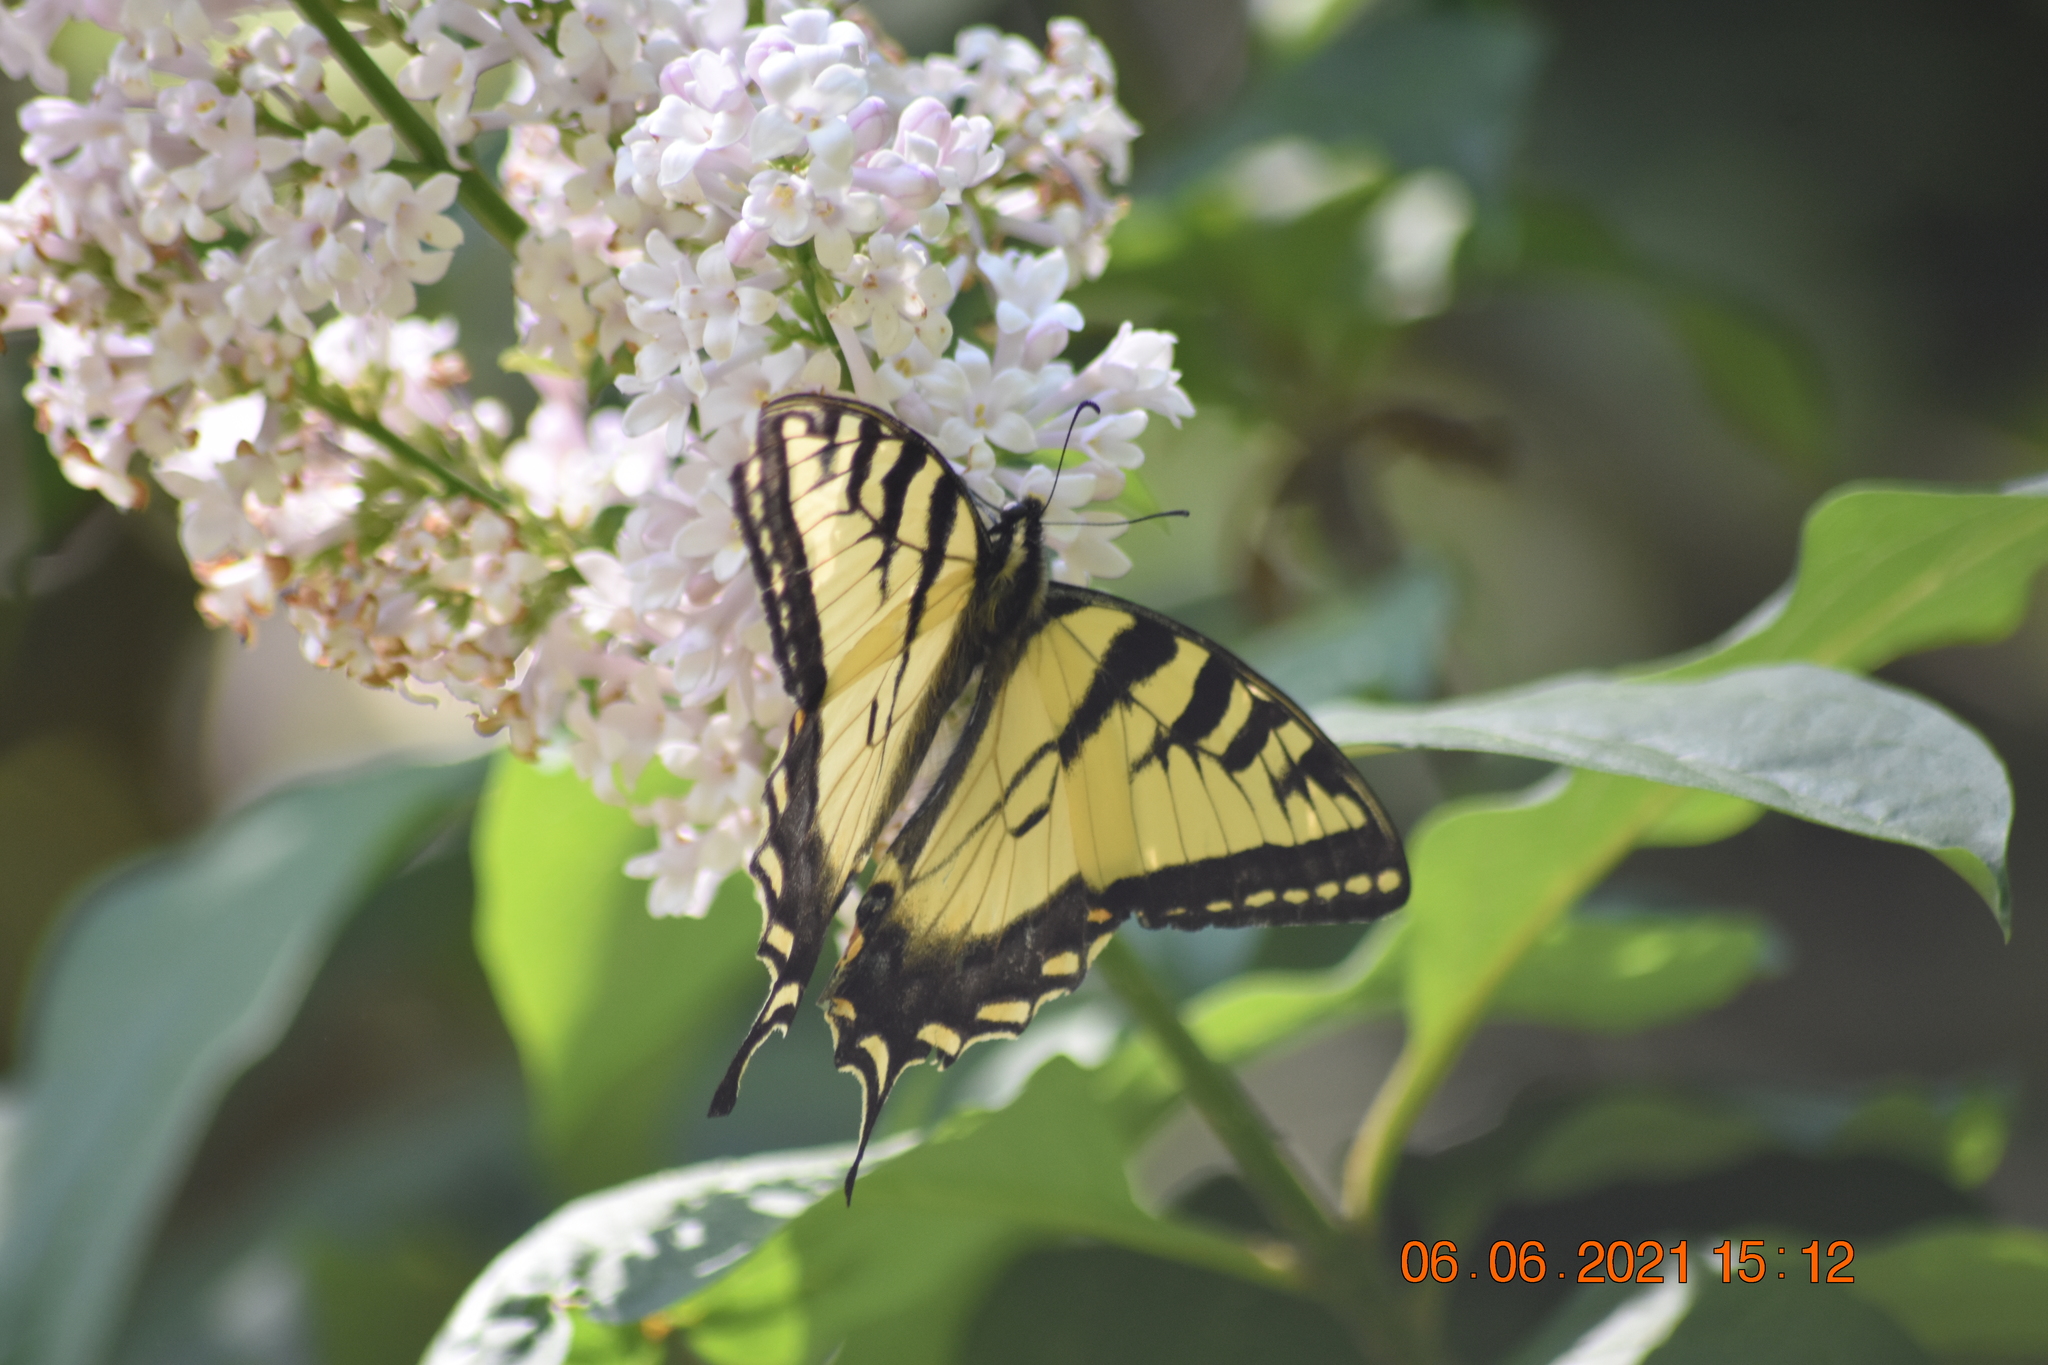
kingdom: Animalia
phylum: Arthropoda
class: Insecta
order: Lepidoptera
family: Papilionidae
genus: Papilio
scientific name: Papilio canadensis
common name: Canadian tiger swallowtail
